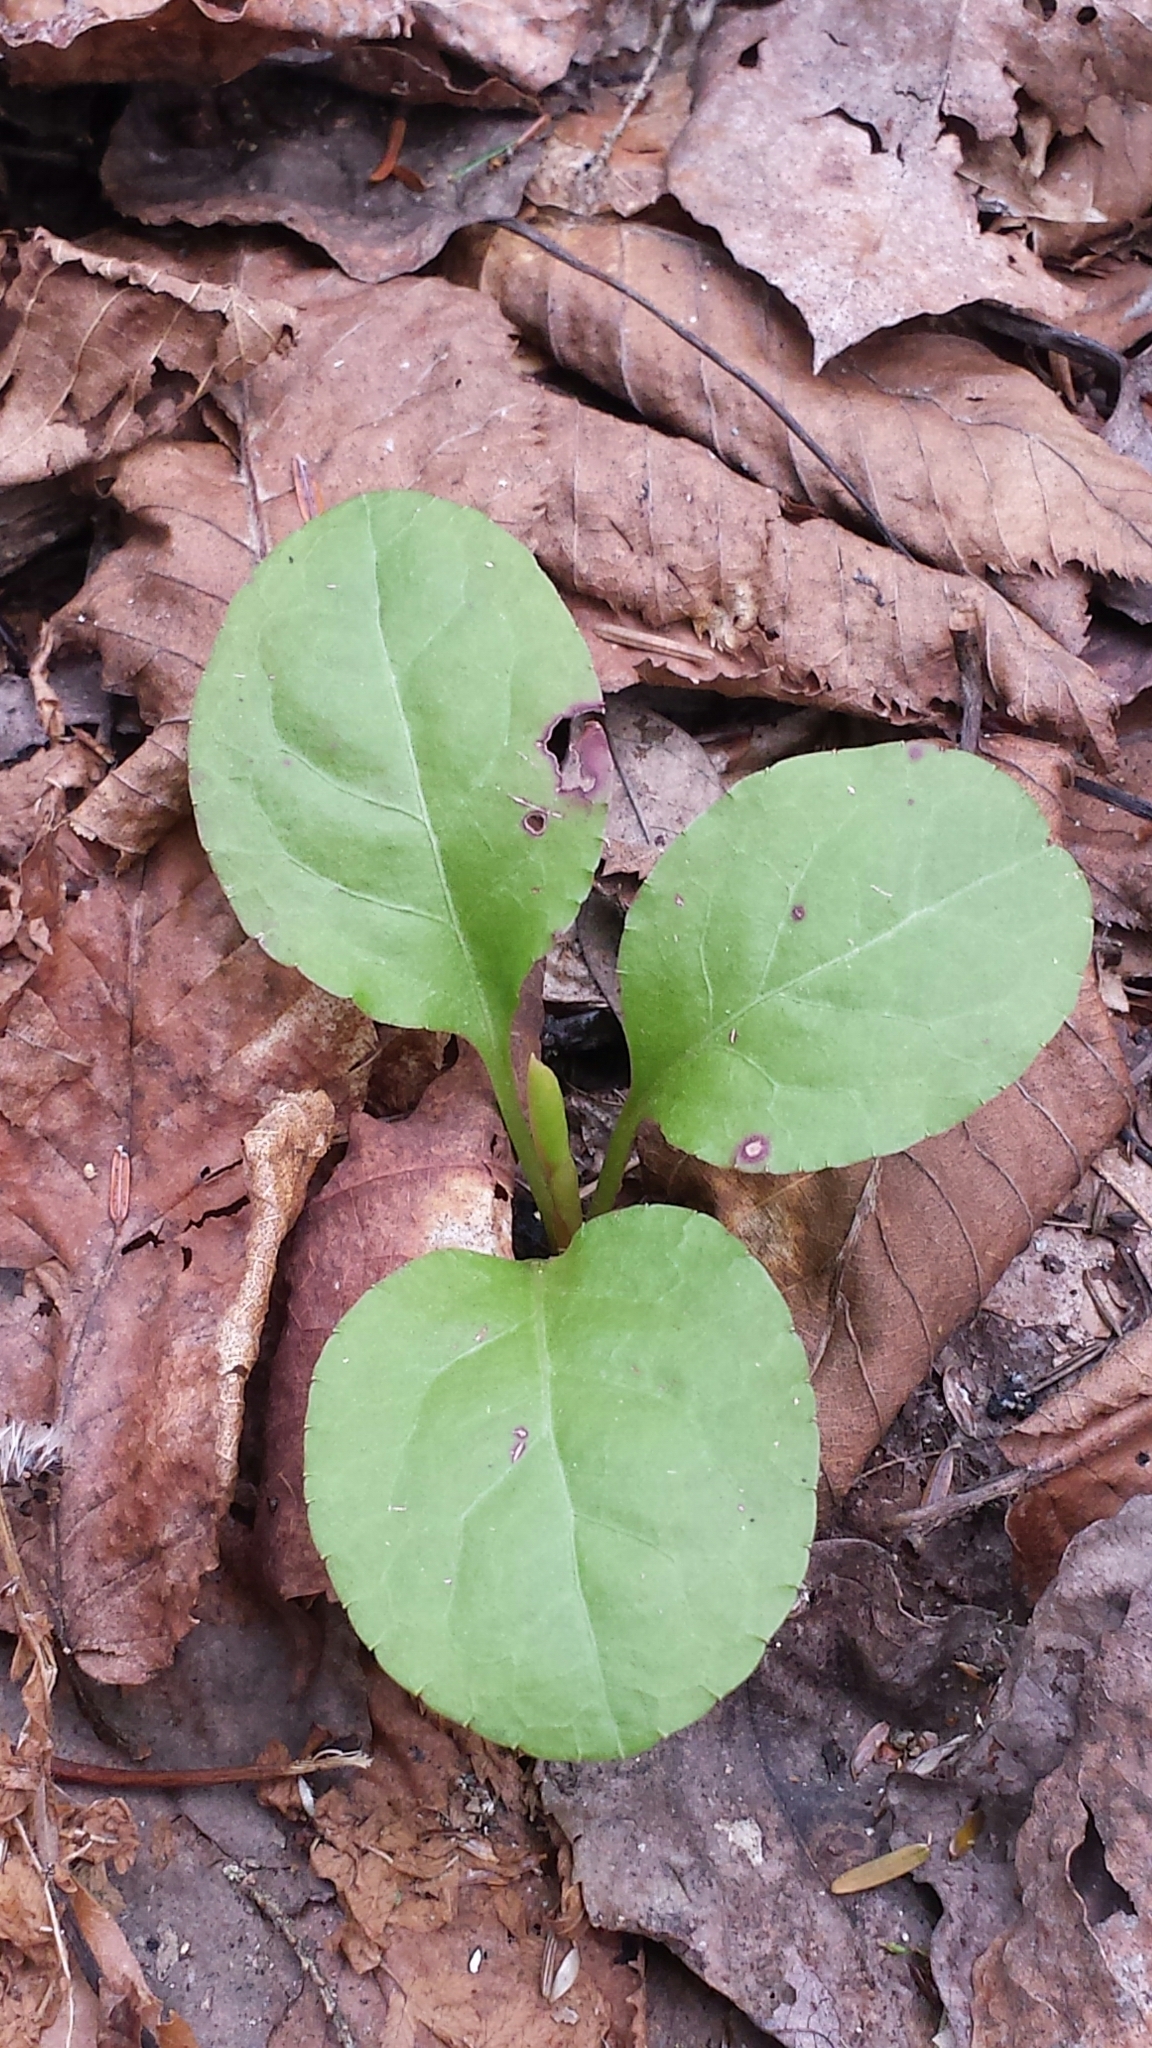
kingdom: Plantae
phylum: Tracheophyta
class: Magnoliopsida
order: Ericales
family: Ericaceae
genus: Pyrola
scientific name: Pyrola elliptica
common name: Shinleaf
